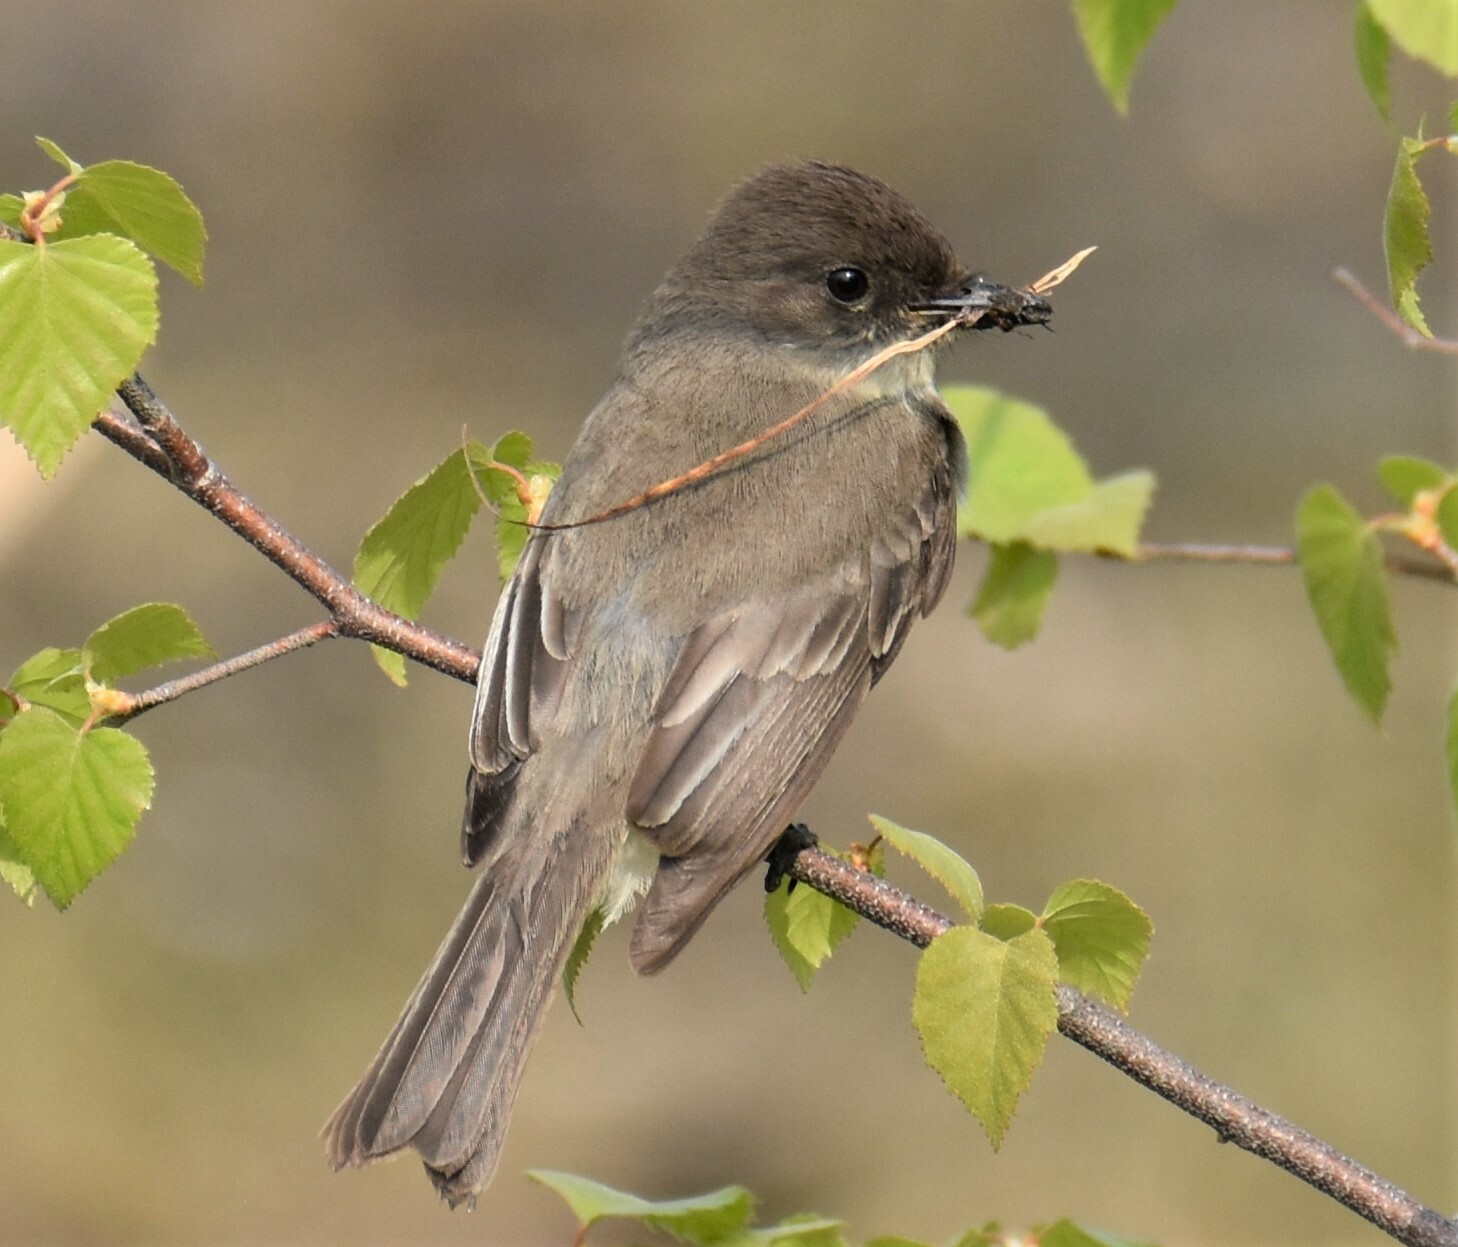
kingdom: Animalia
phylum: Chordata
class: Aves
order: Passeriformes
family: Tyrannidae
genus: Sayornis
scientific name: Sayornis phoebe
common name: Eastern phoebe
